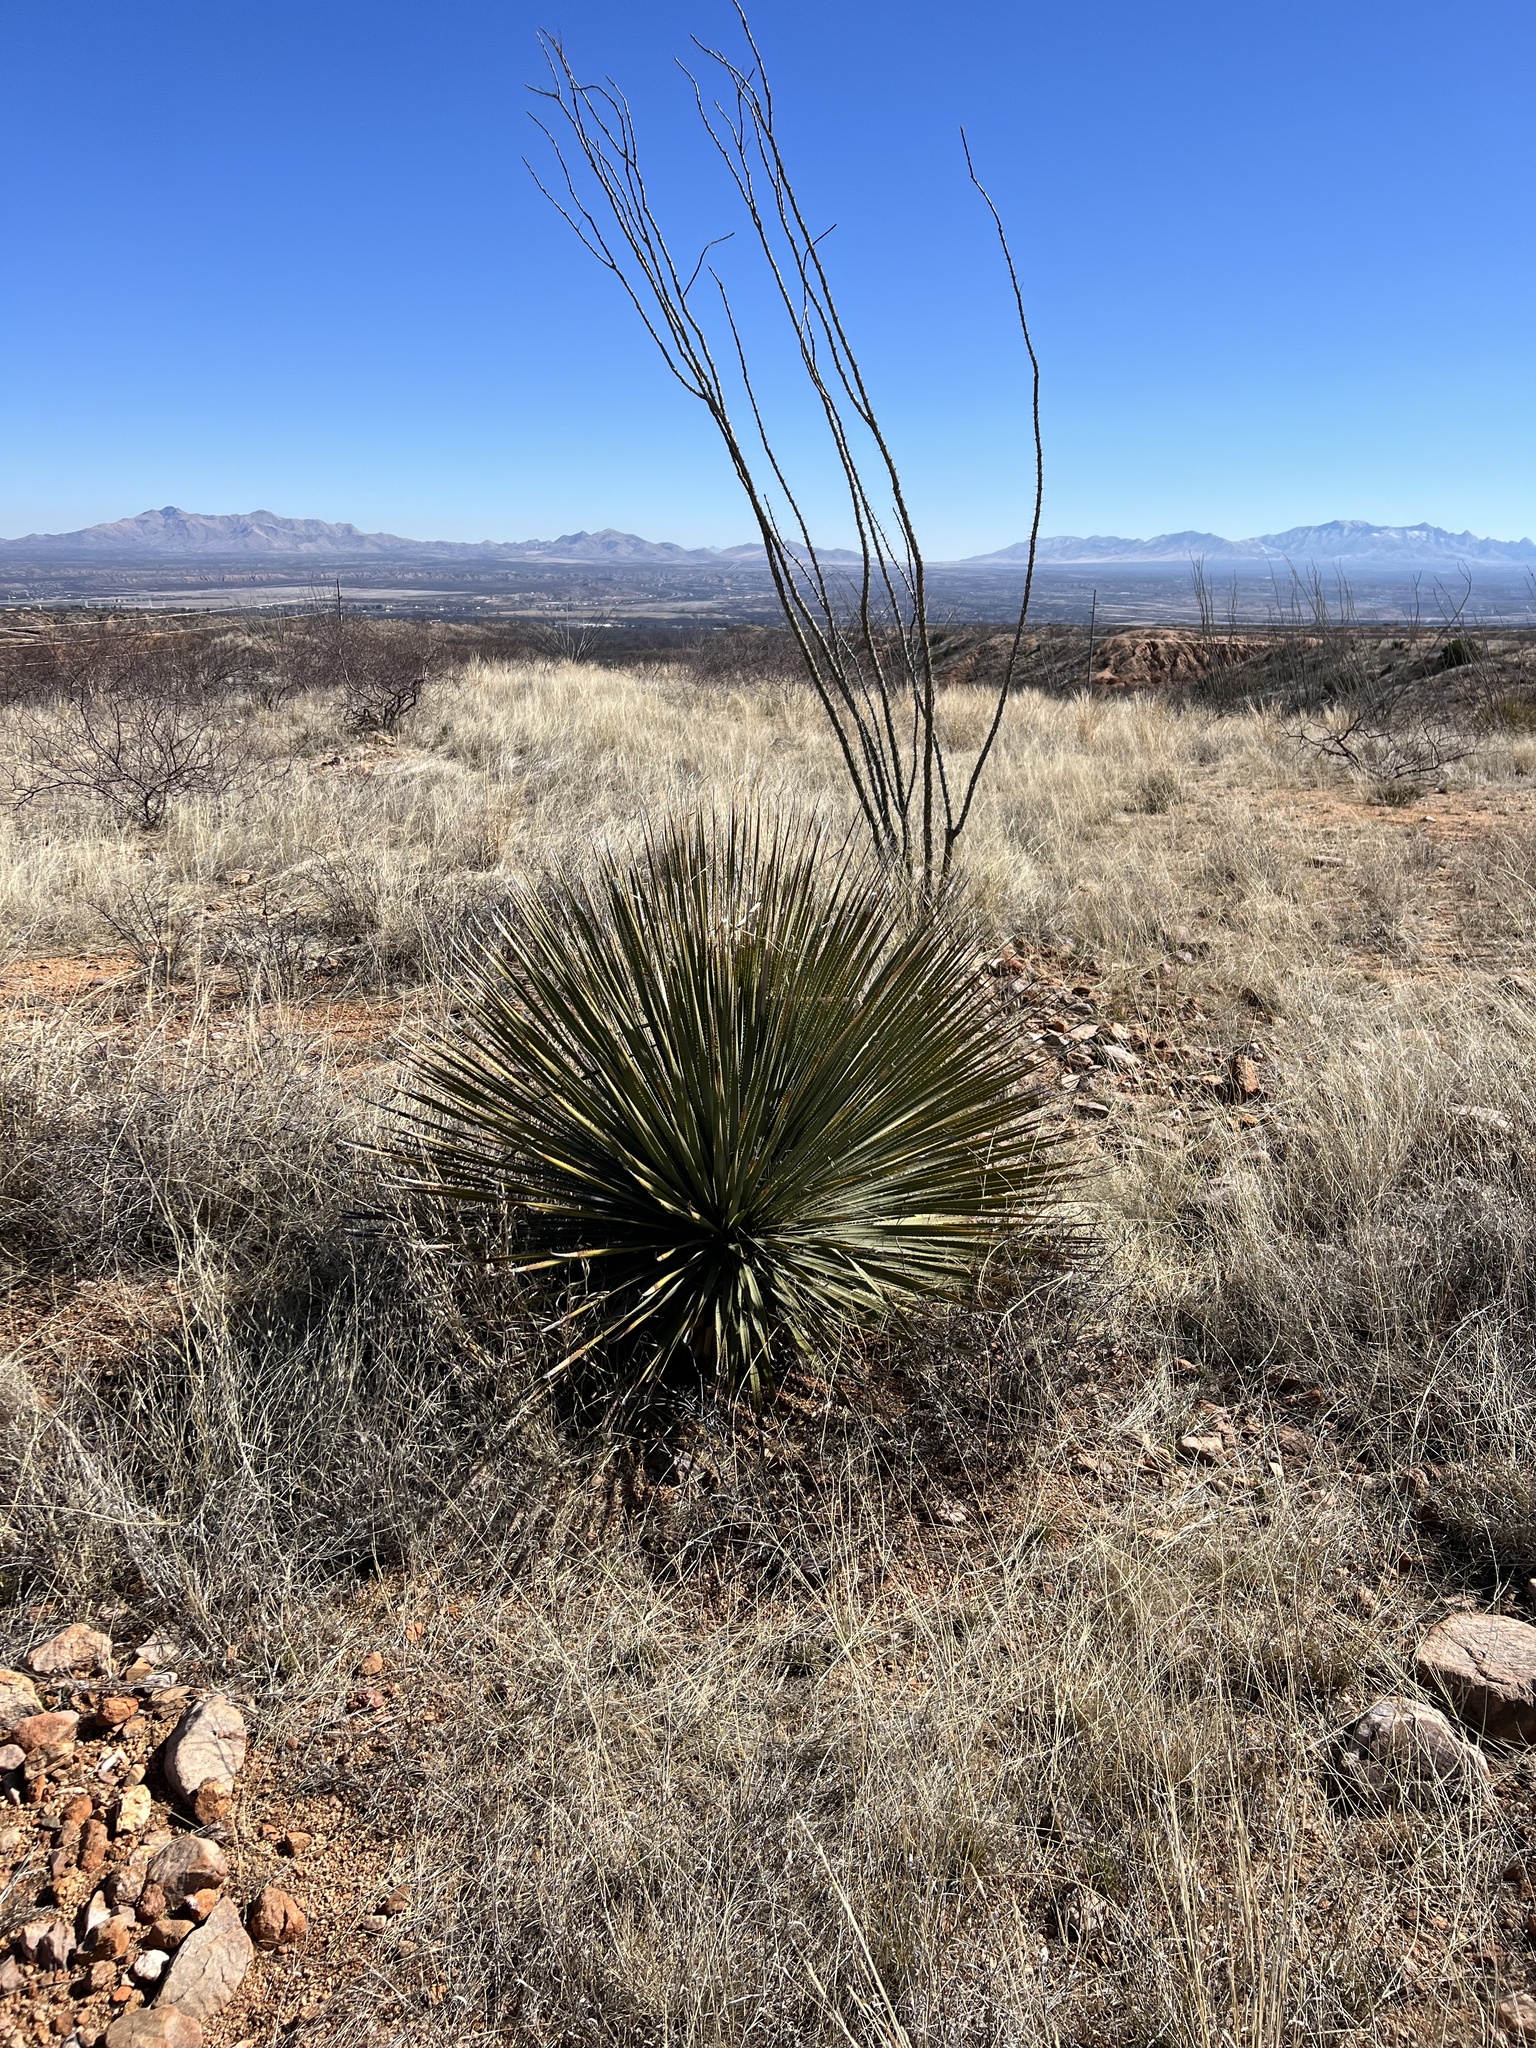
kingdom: Plantae
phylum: Tracheophyta
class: Liliopsida
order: Asparagales
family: Asparagaceae
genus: Dasylirion
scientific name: Dasylirion wheeleri
